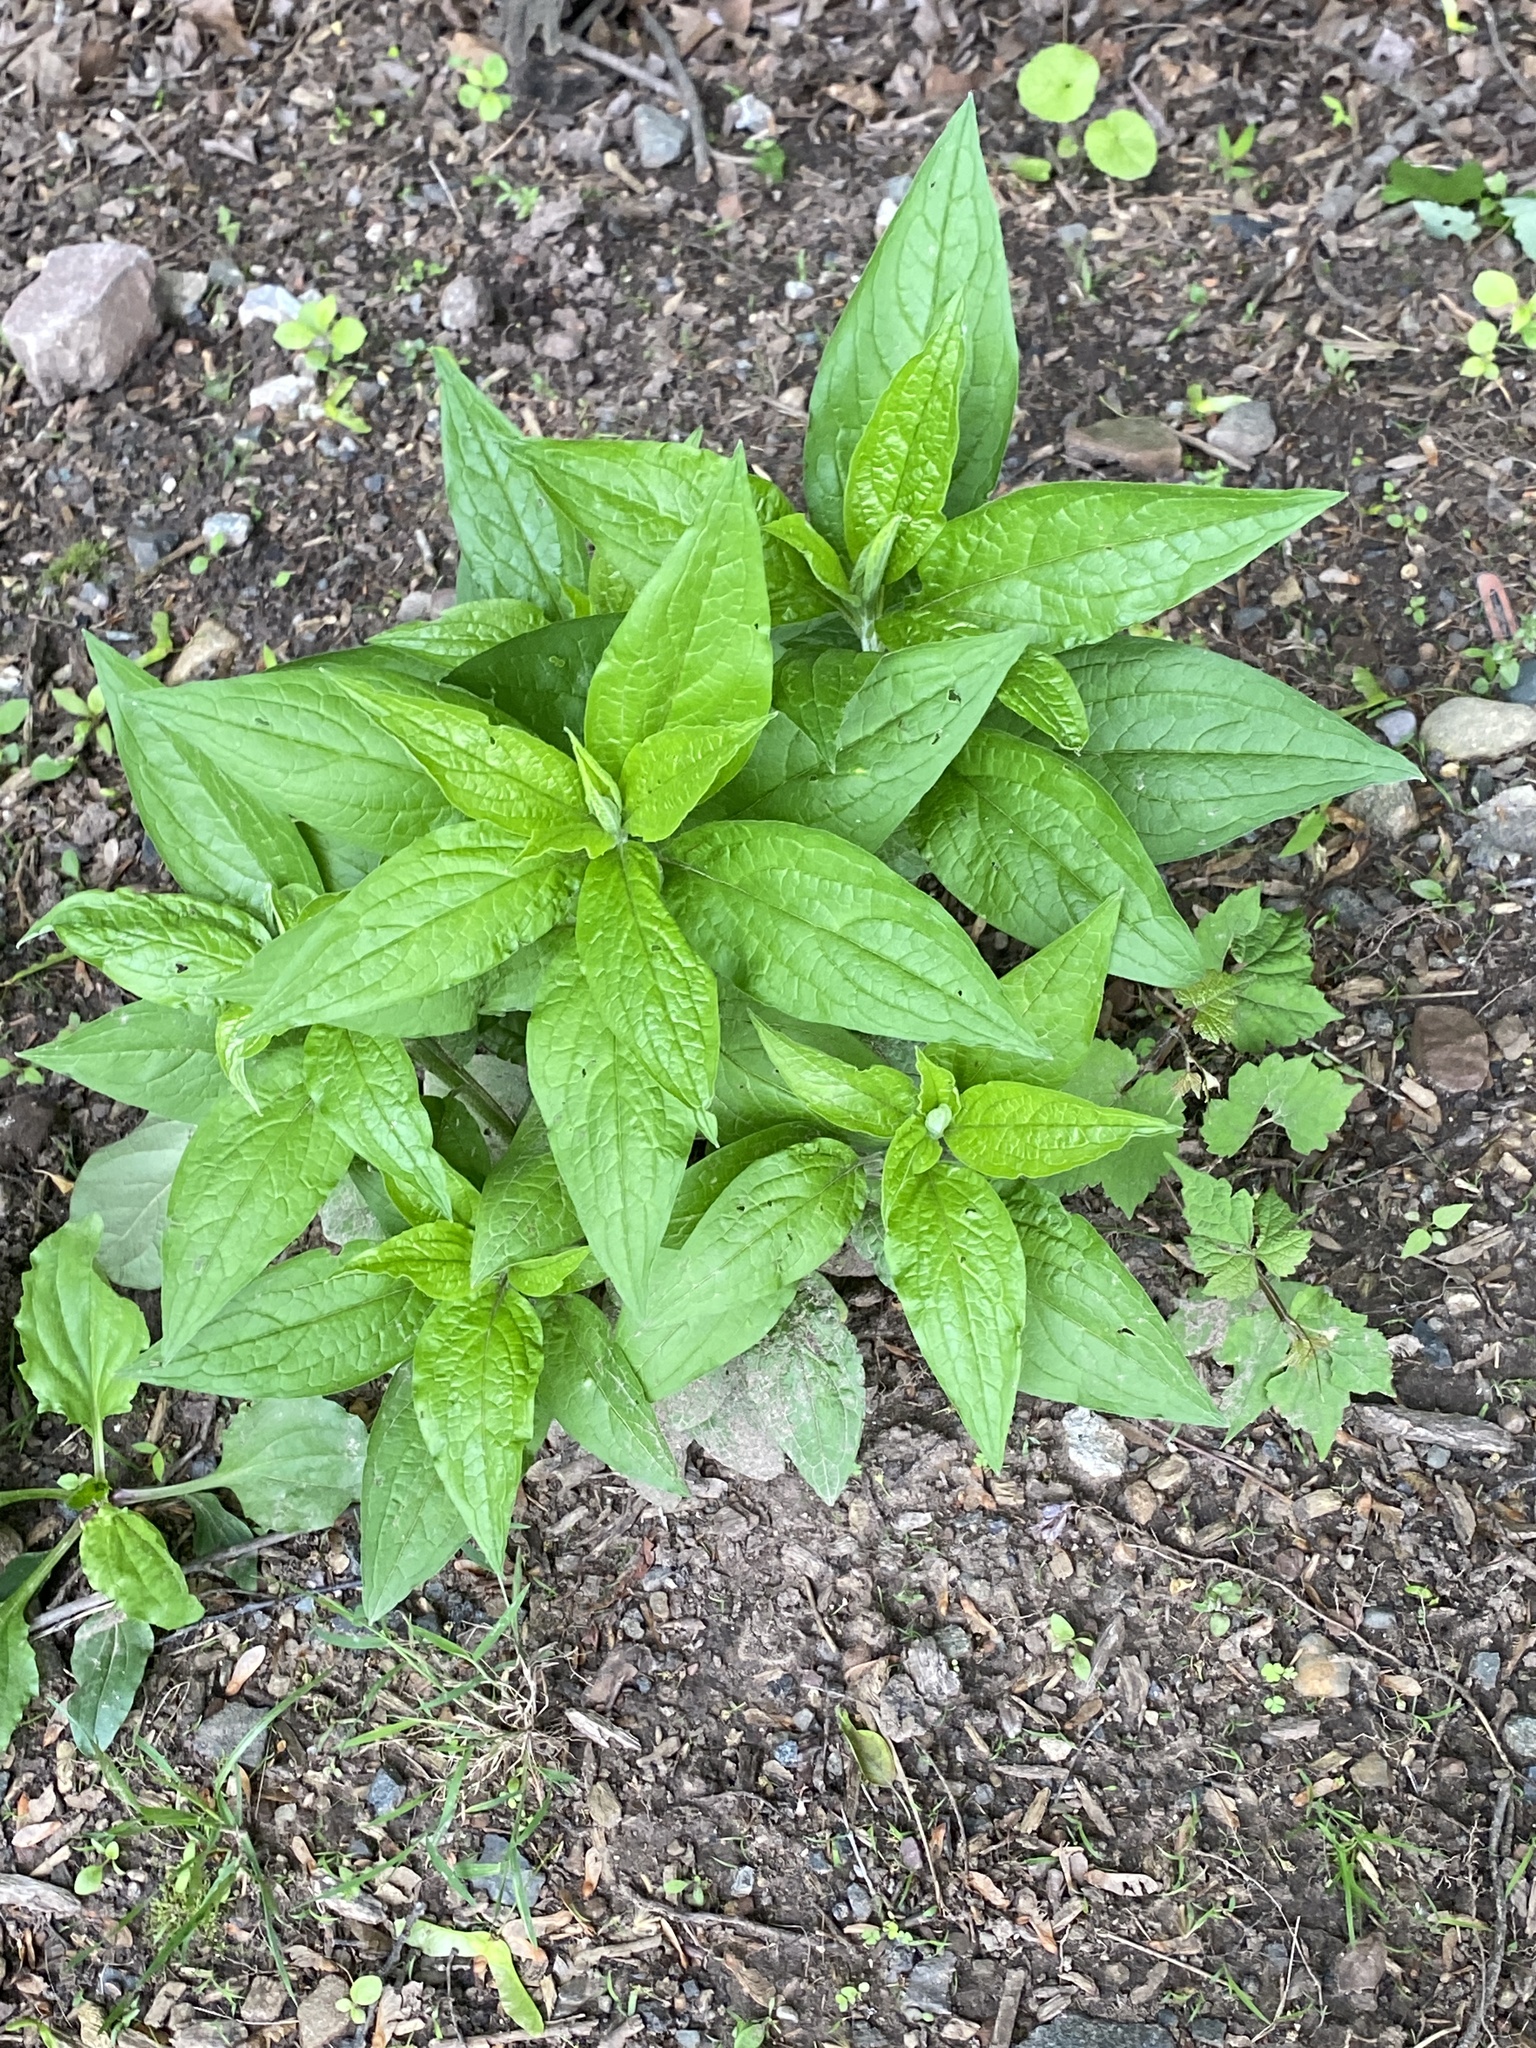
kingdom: Plantae
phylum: Tracheophyta
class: Magnoliopsida
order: Boraginales
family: Boraginaceae
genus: Hackelia
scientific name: Hackelia virginiana
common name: Beggar's-lice
